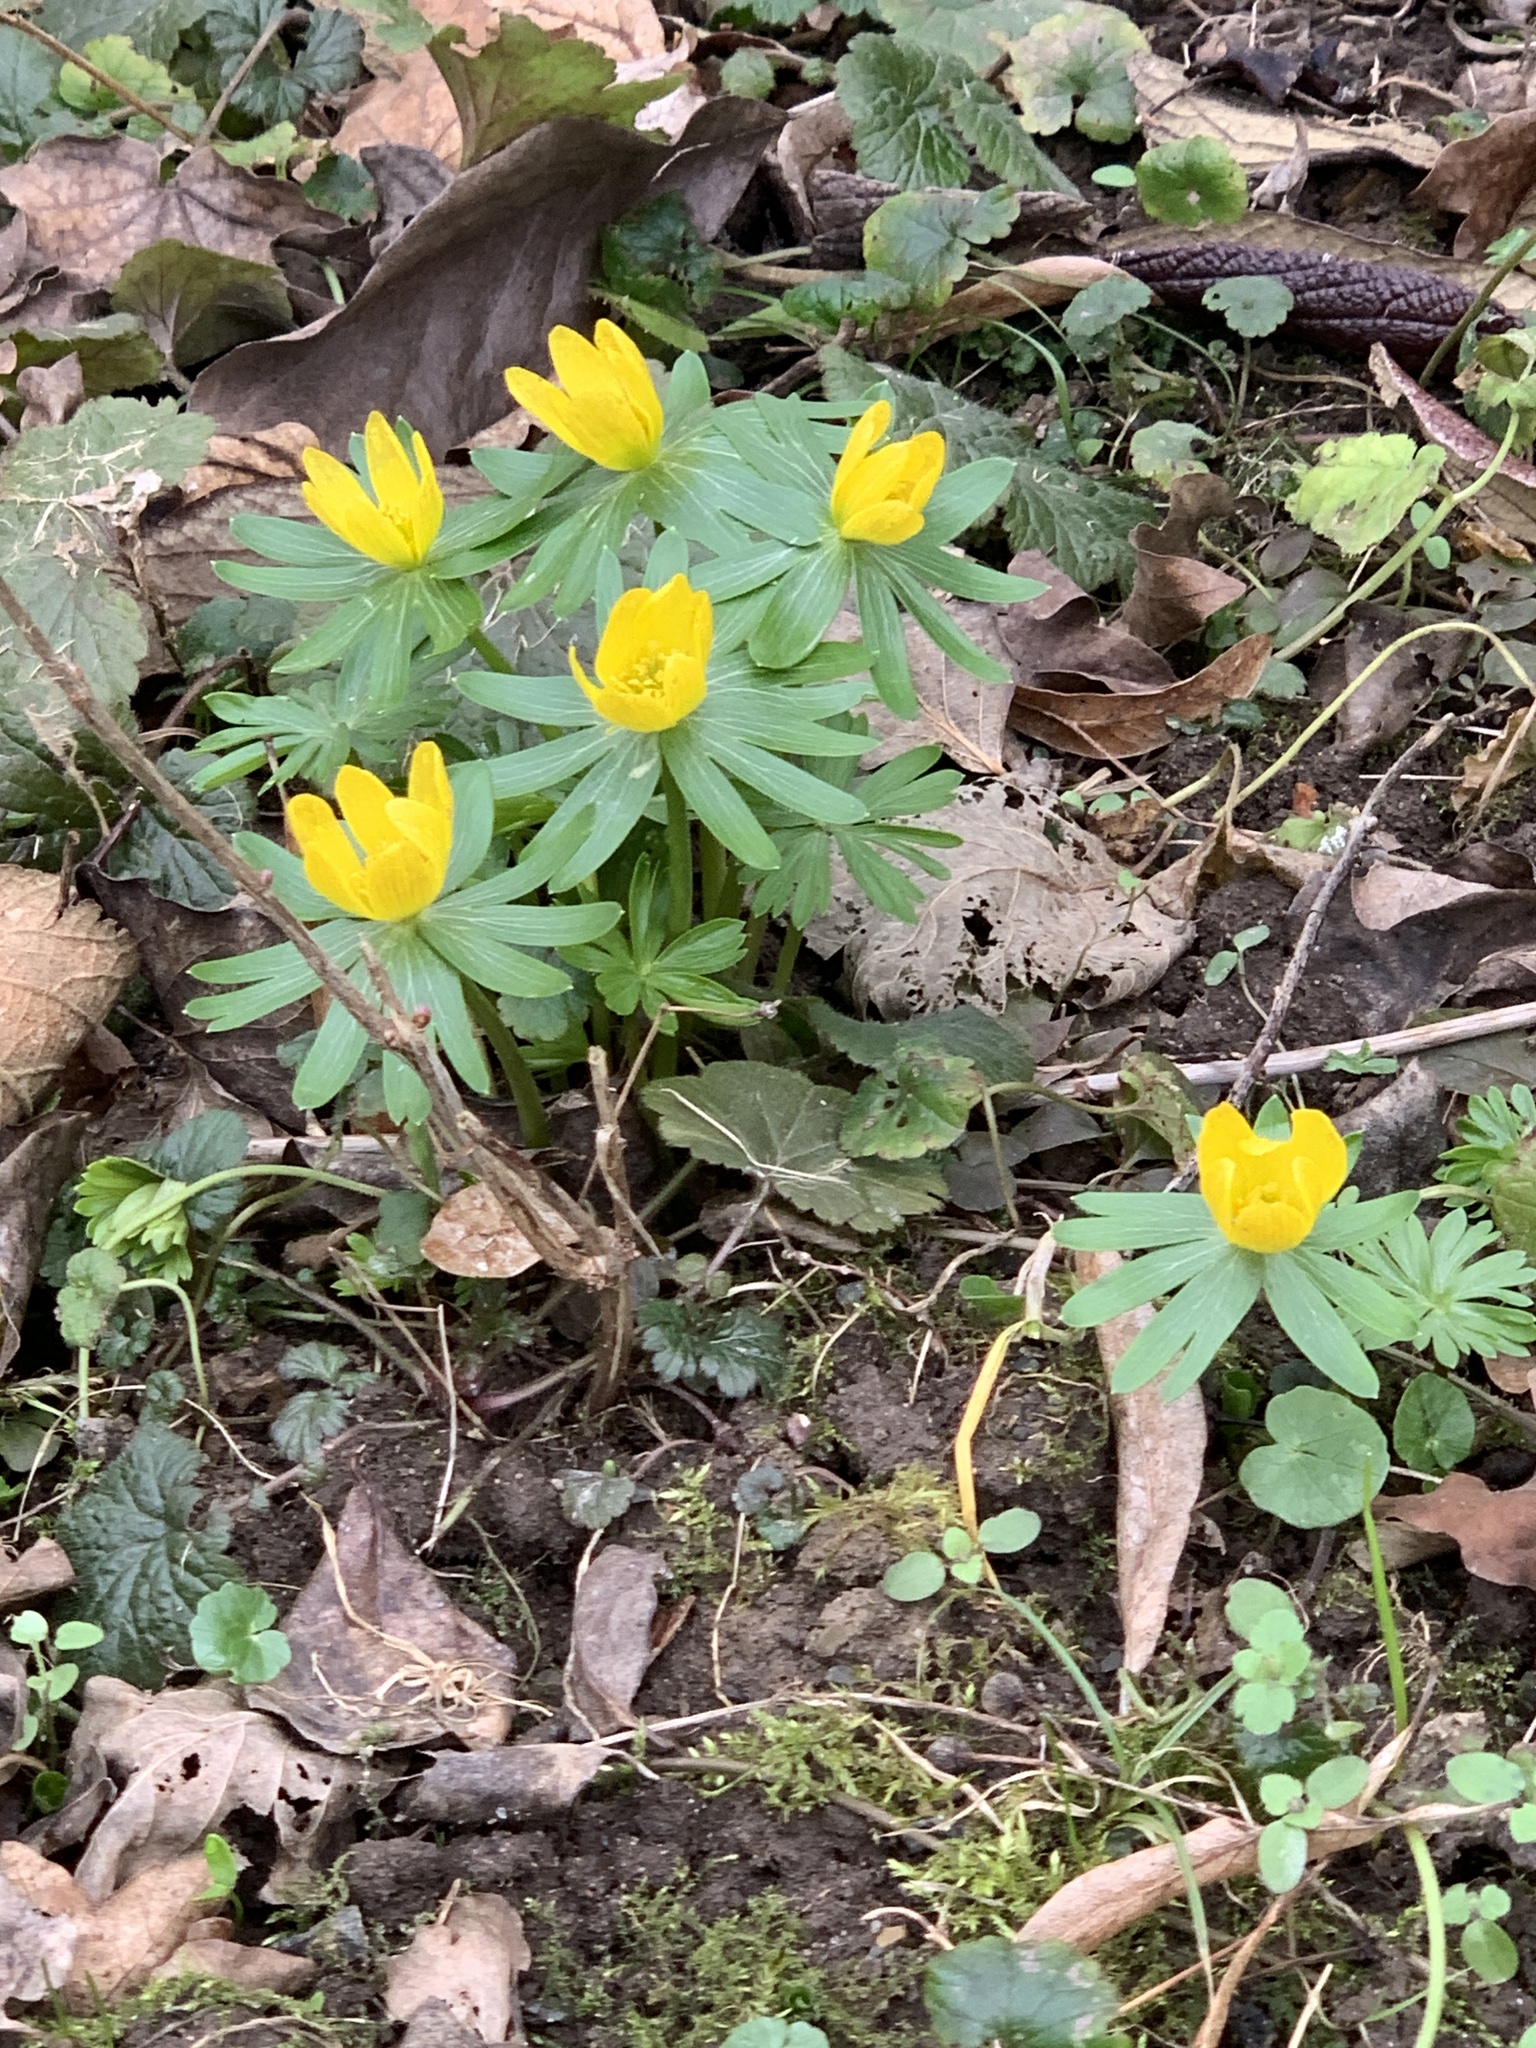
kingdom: Plantae
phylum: Tracheophyta
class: Magnoliopsida
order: Ranunculales
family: Ranunculaceae
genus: Eranthis
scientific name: Eranthis hyemalis
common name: Winter aconite
